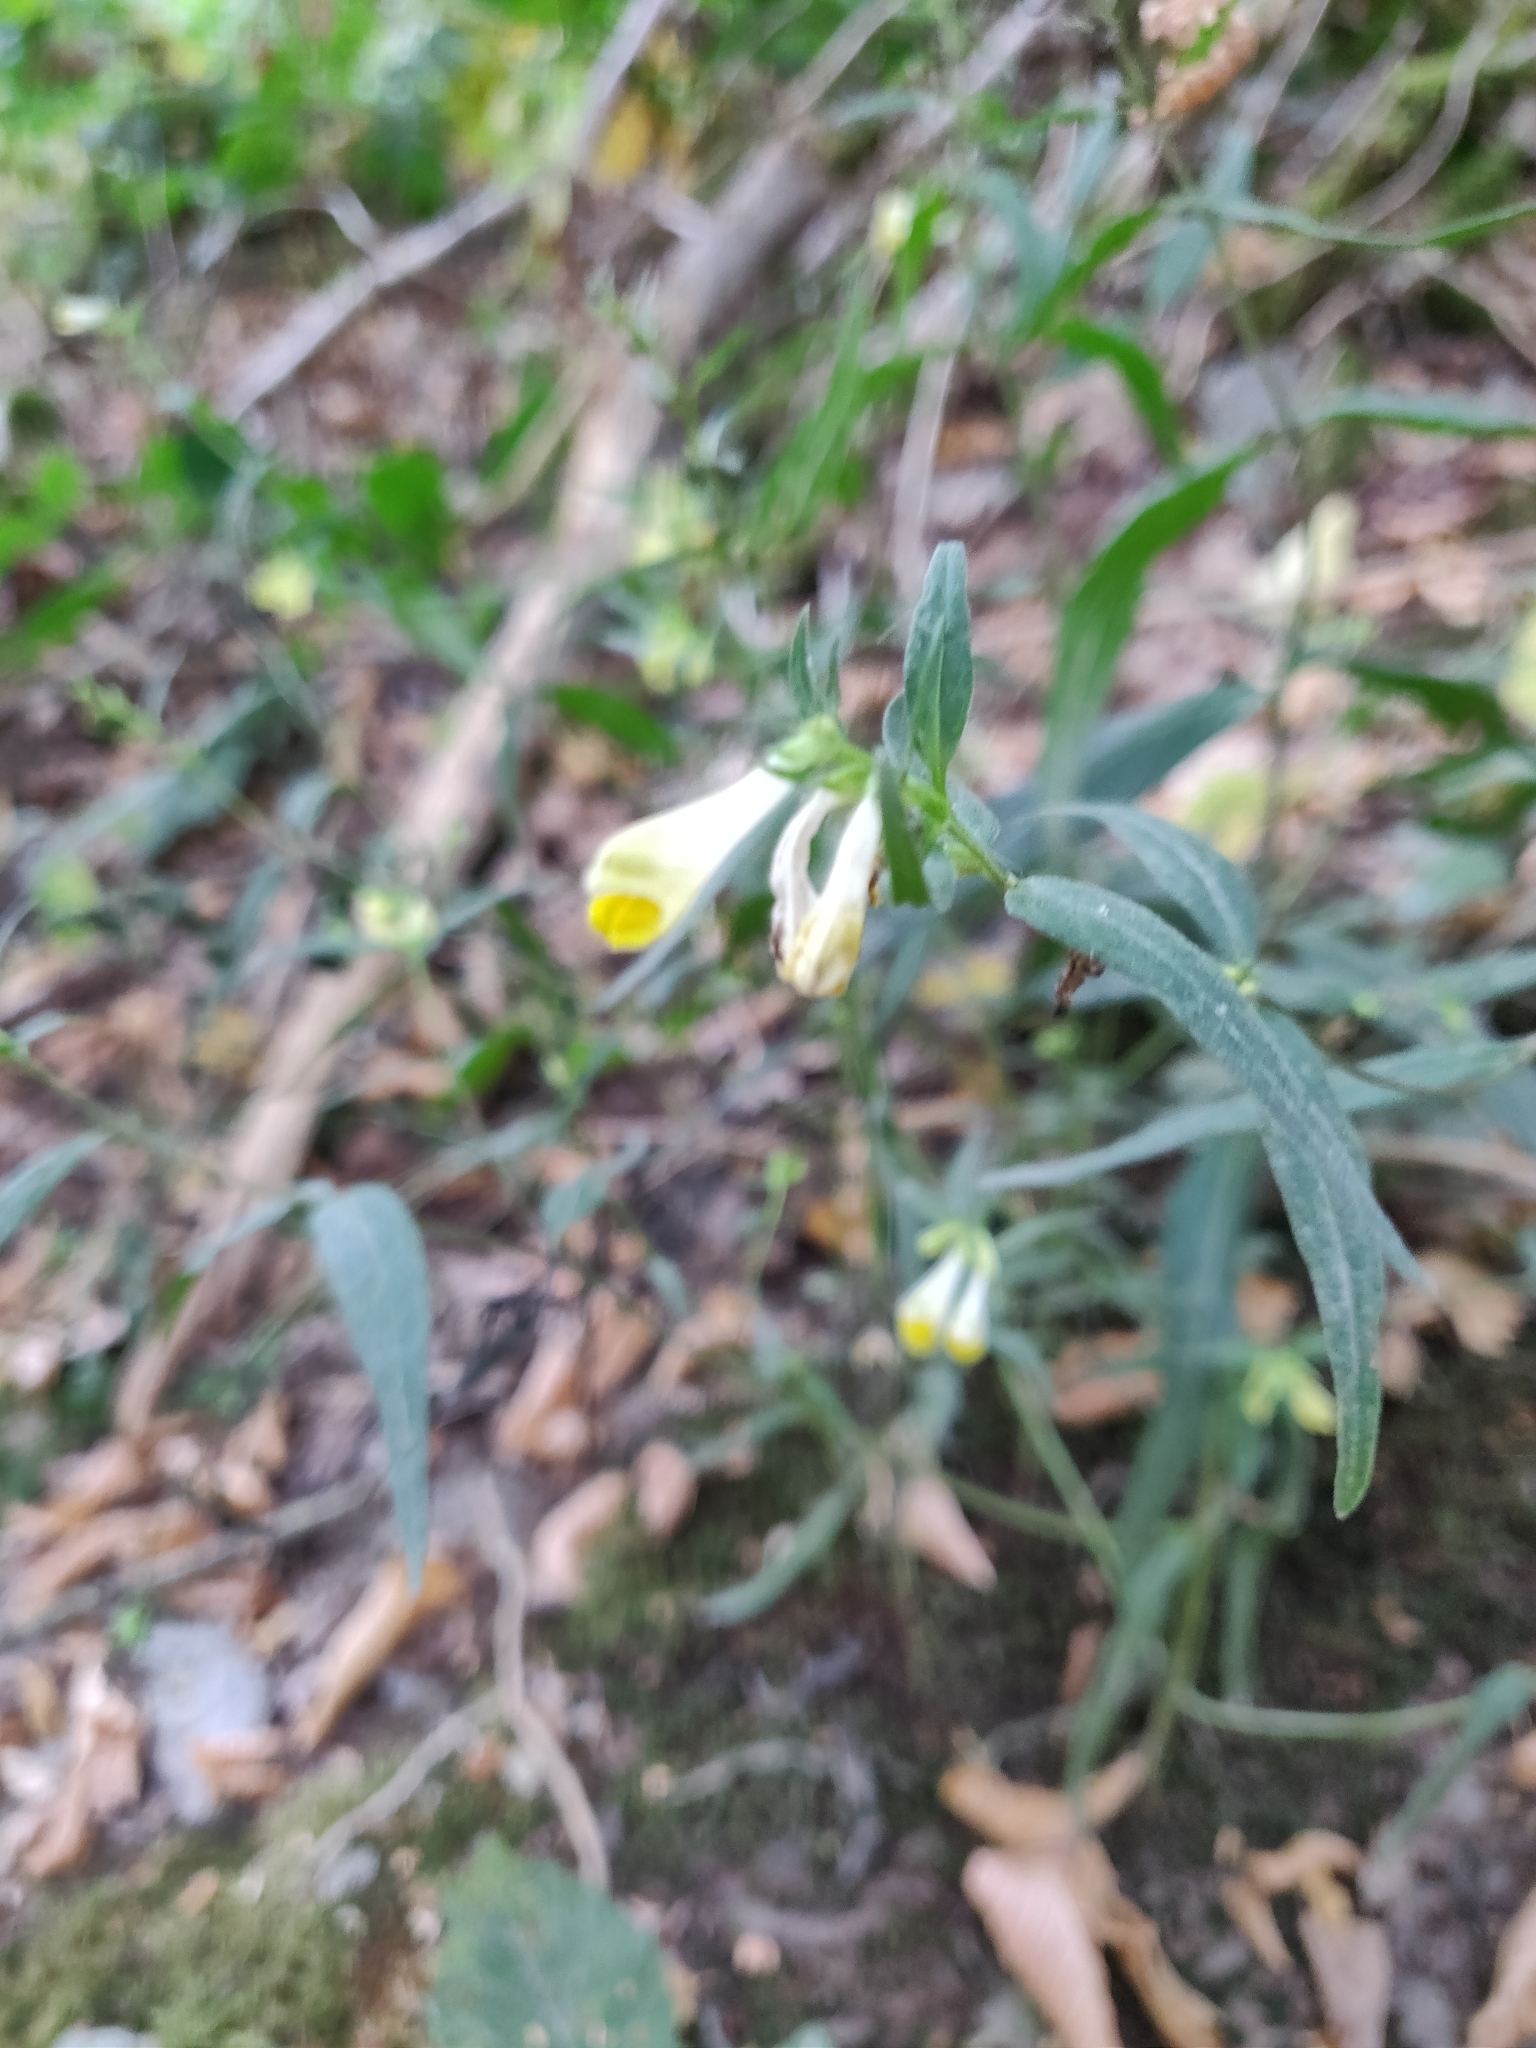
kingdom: Plantae
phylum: Tracheophyta
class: Magnoliopsida
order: Lamiales
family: Orobanchaceae
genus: Melampyrum
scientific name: Melampyrum pratense
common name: Common cow-wheat
